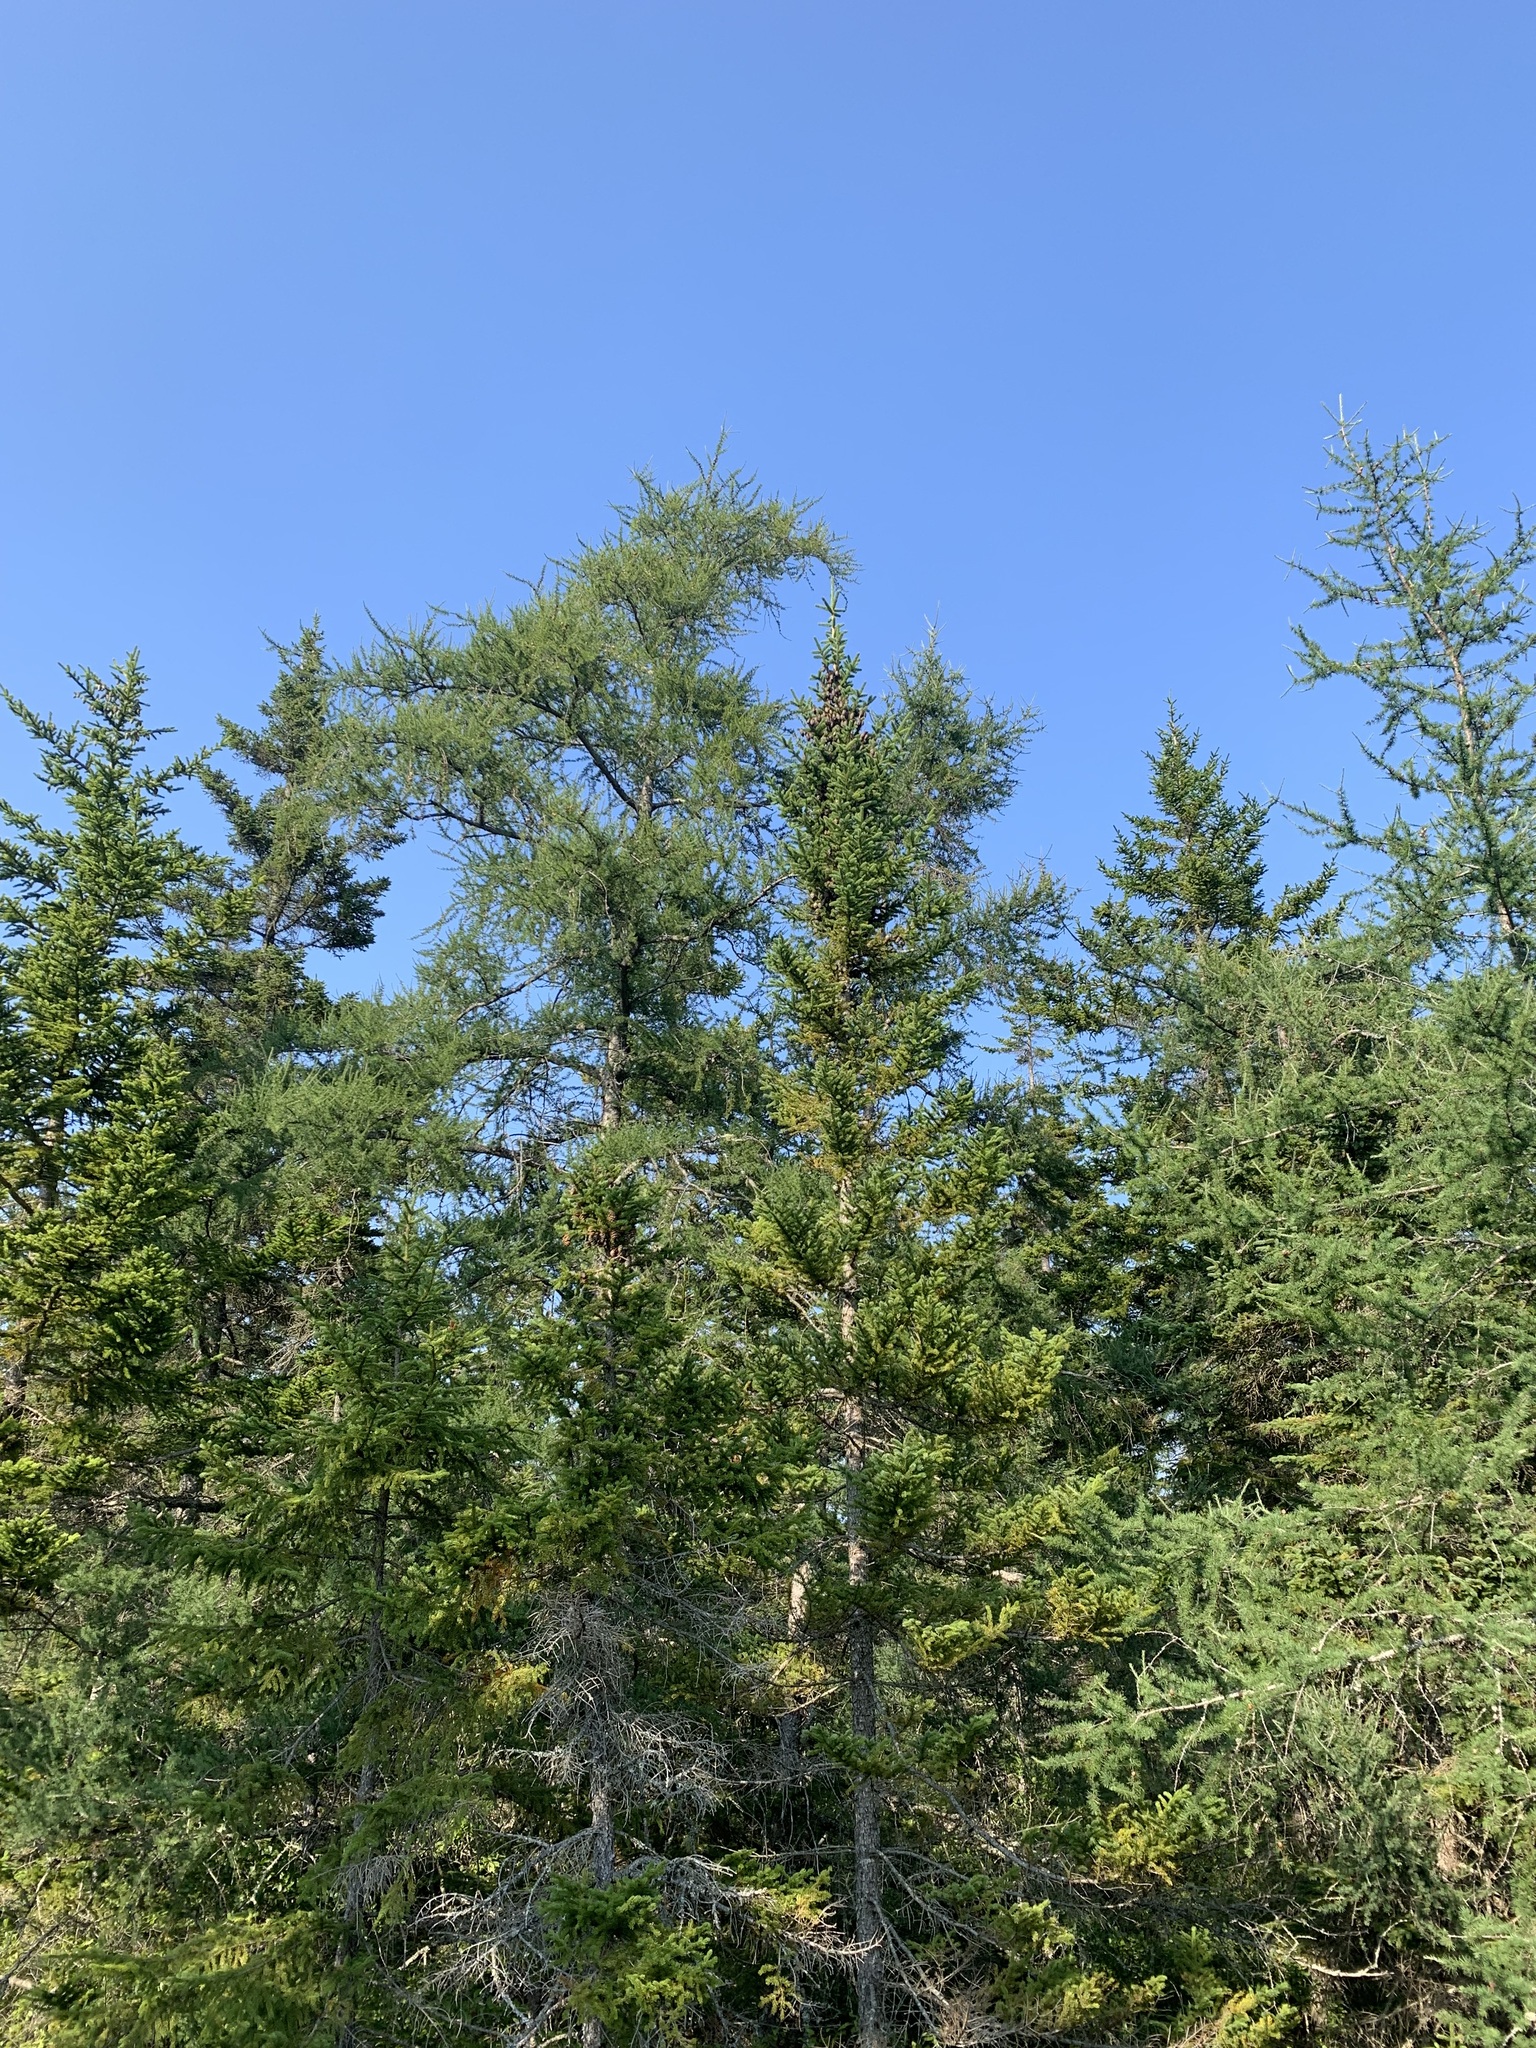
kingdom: Plantae
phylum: Tracheophyta
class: Pinopsida
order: Pinales
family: Pinaceae
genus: Larix
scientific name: Larix laricina
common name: American larch
